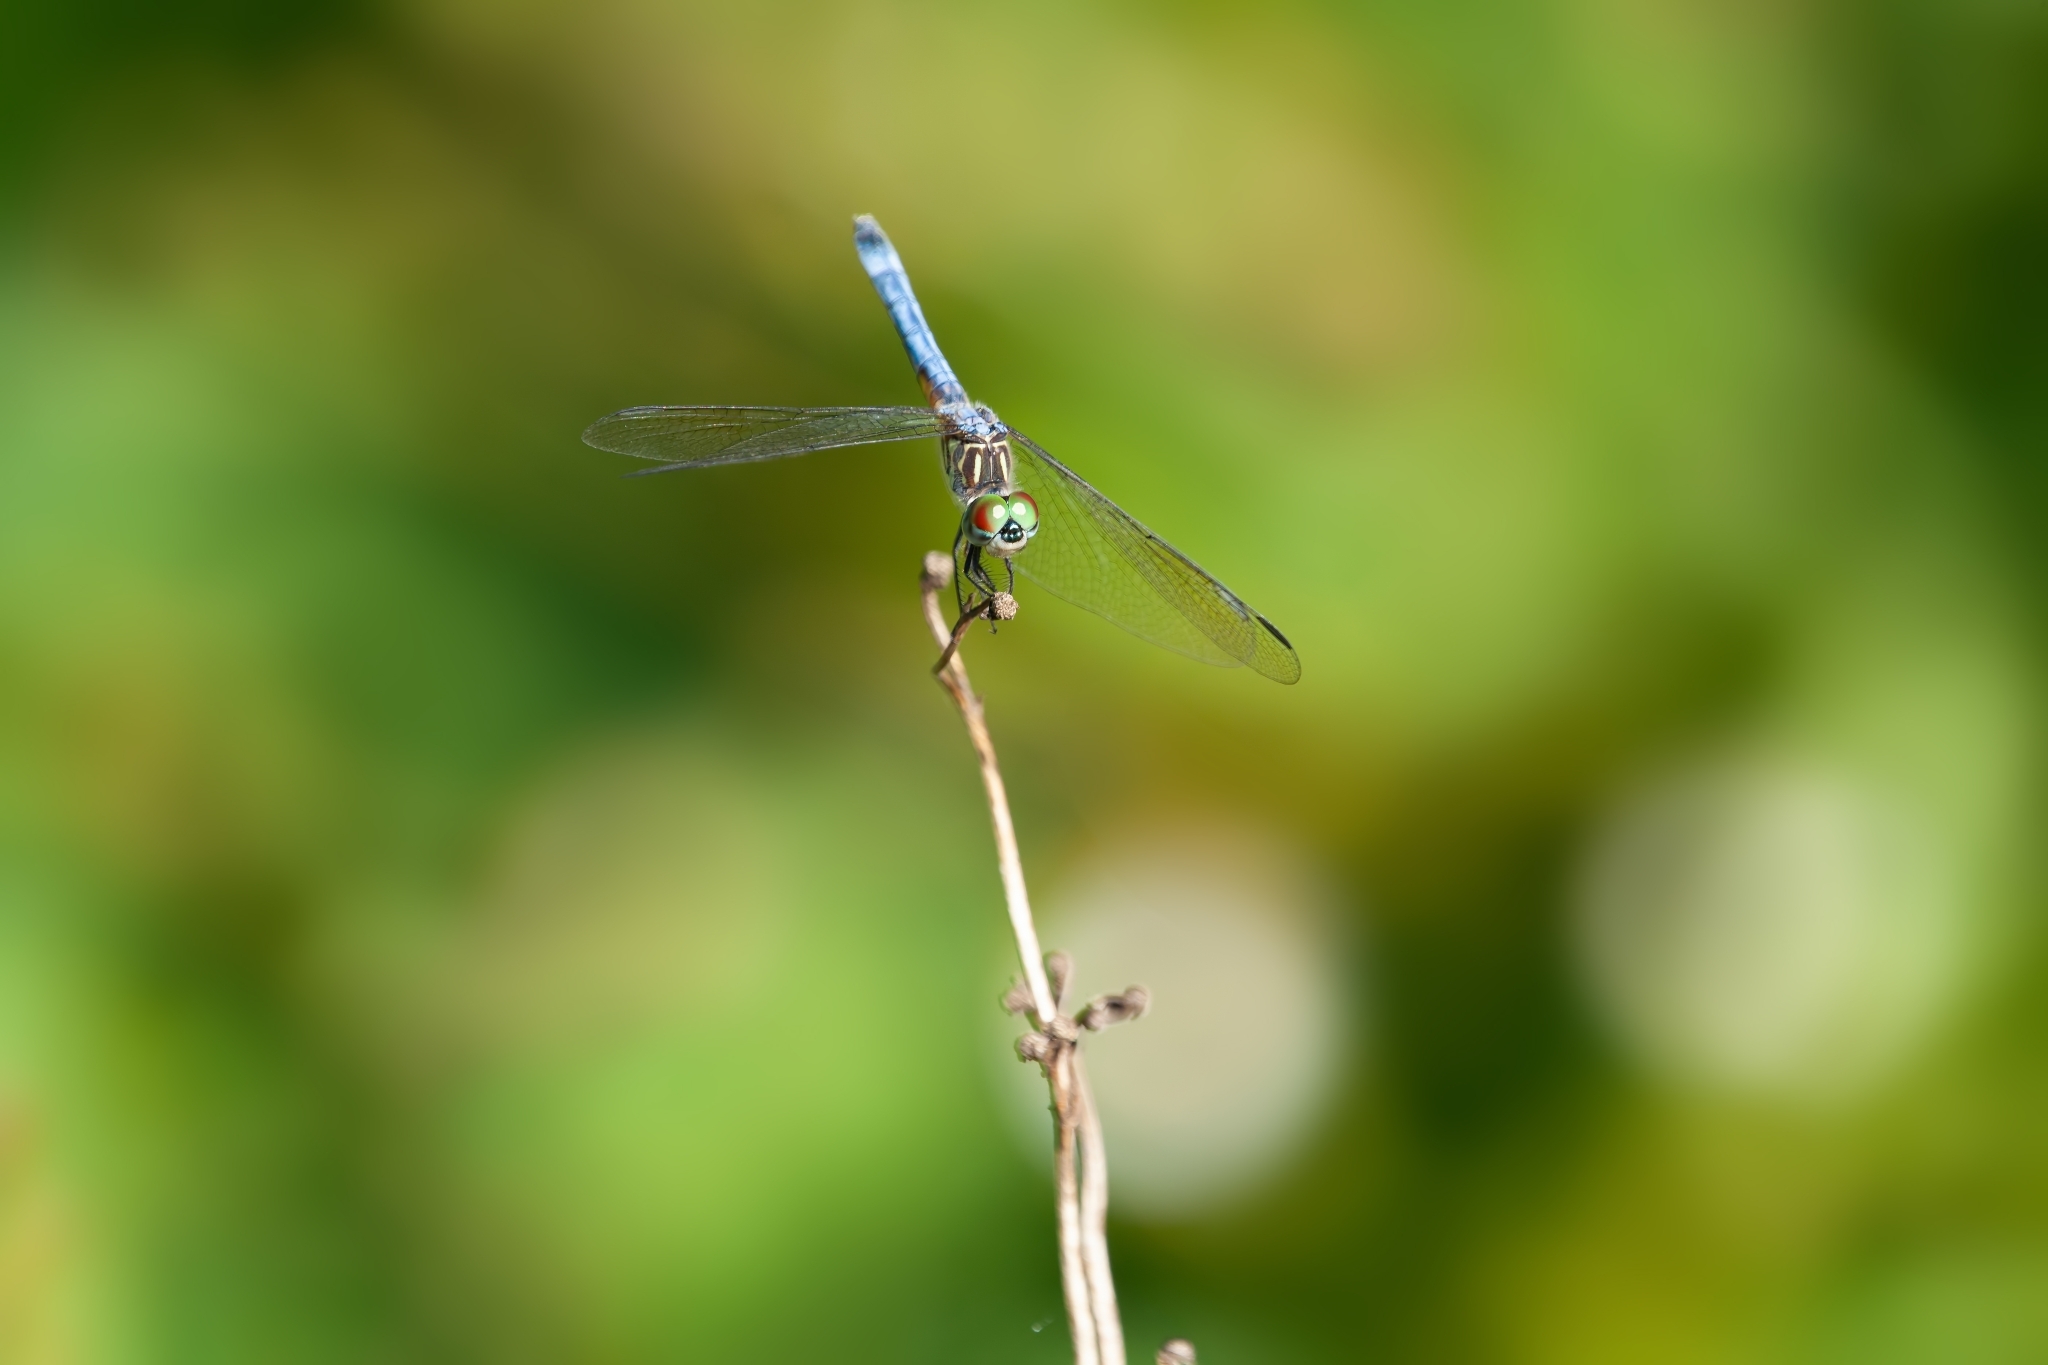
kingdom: Animalia
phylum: Arthropoda
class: Insecta
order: Odonata
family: Libellulidae
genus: Pachydiplax
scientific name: Pachydiplax longipennis
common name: Blue dasher
